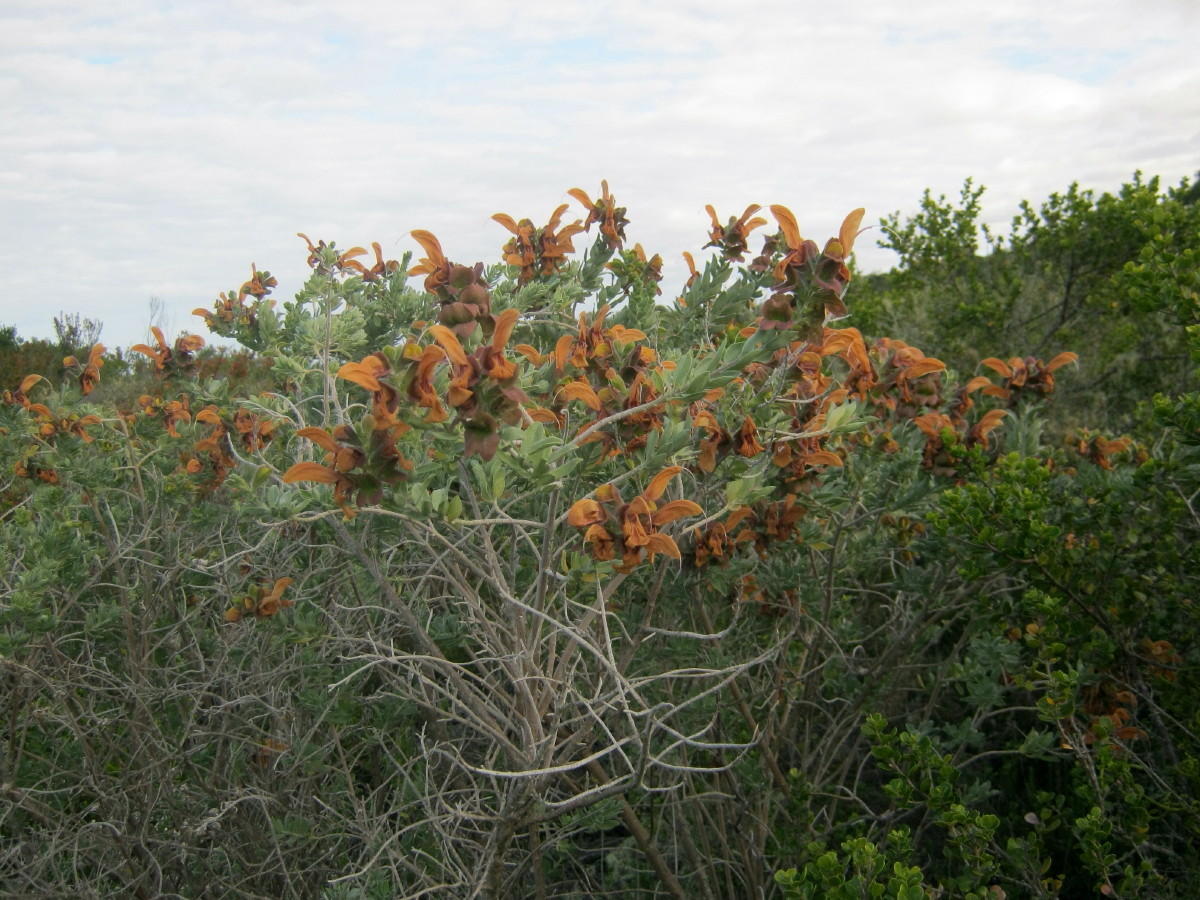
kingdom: Plantae
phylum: Tracheophyta
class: Magnoliopsida
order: Lamiales
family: Lamiaceae
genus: Salvia
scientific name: Salvia aurea
